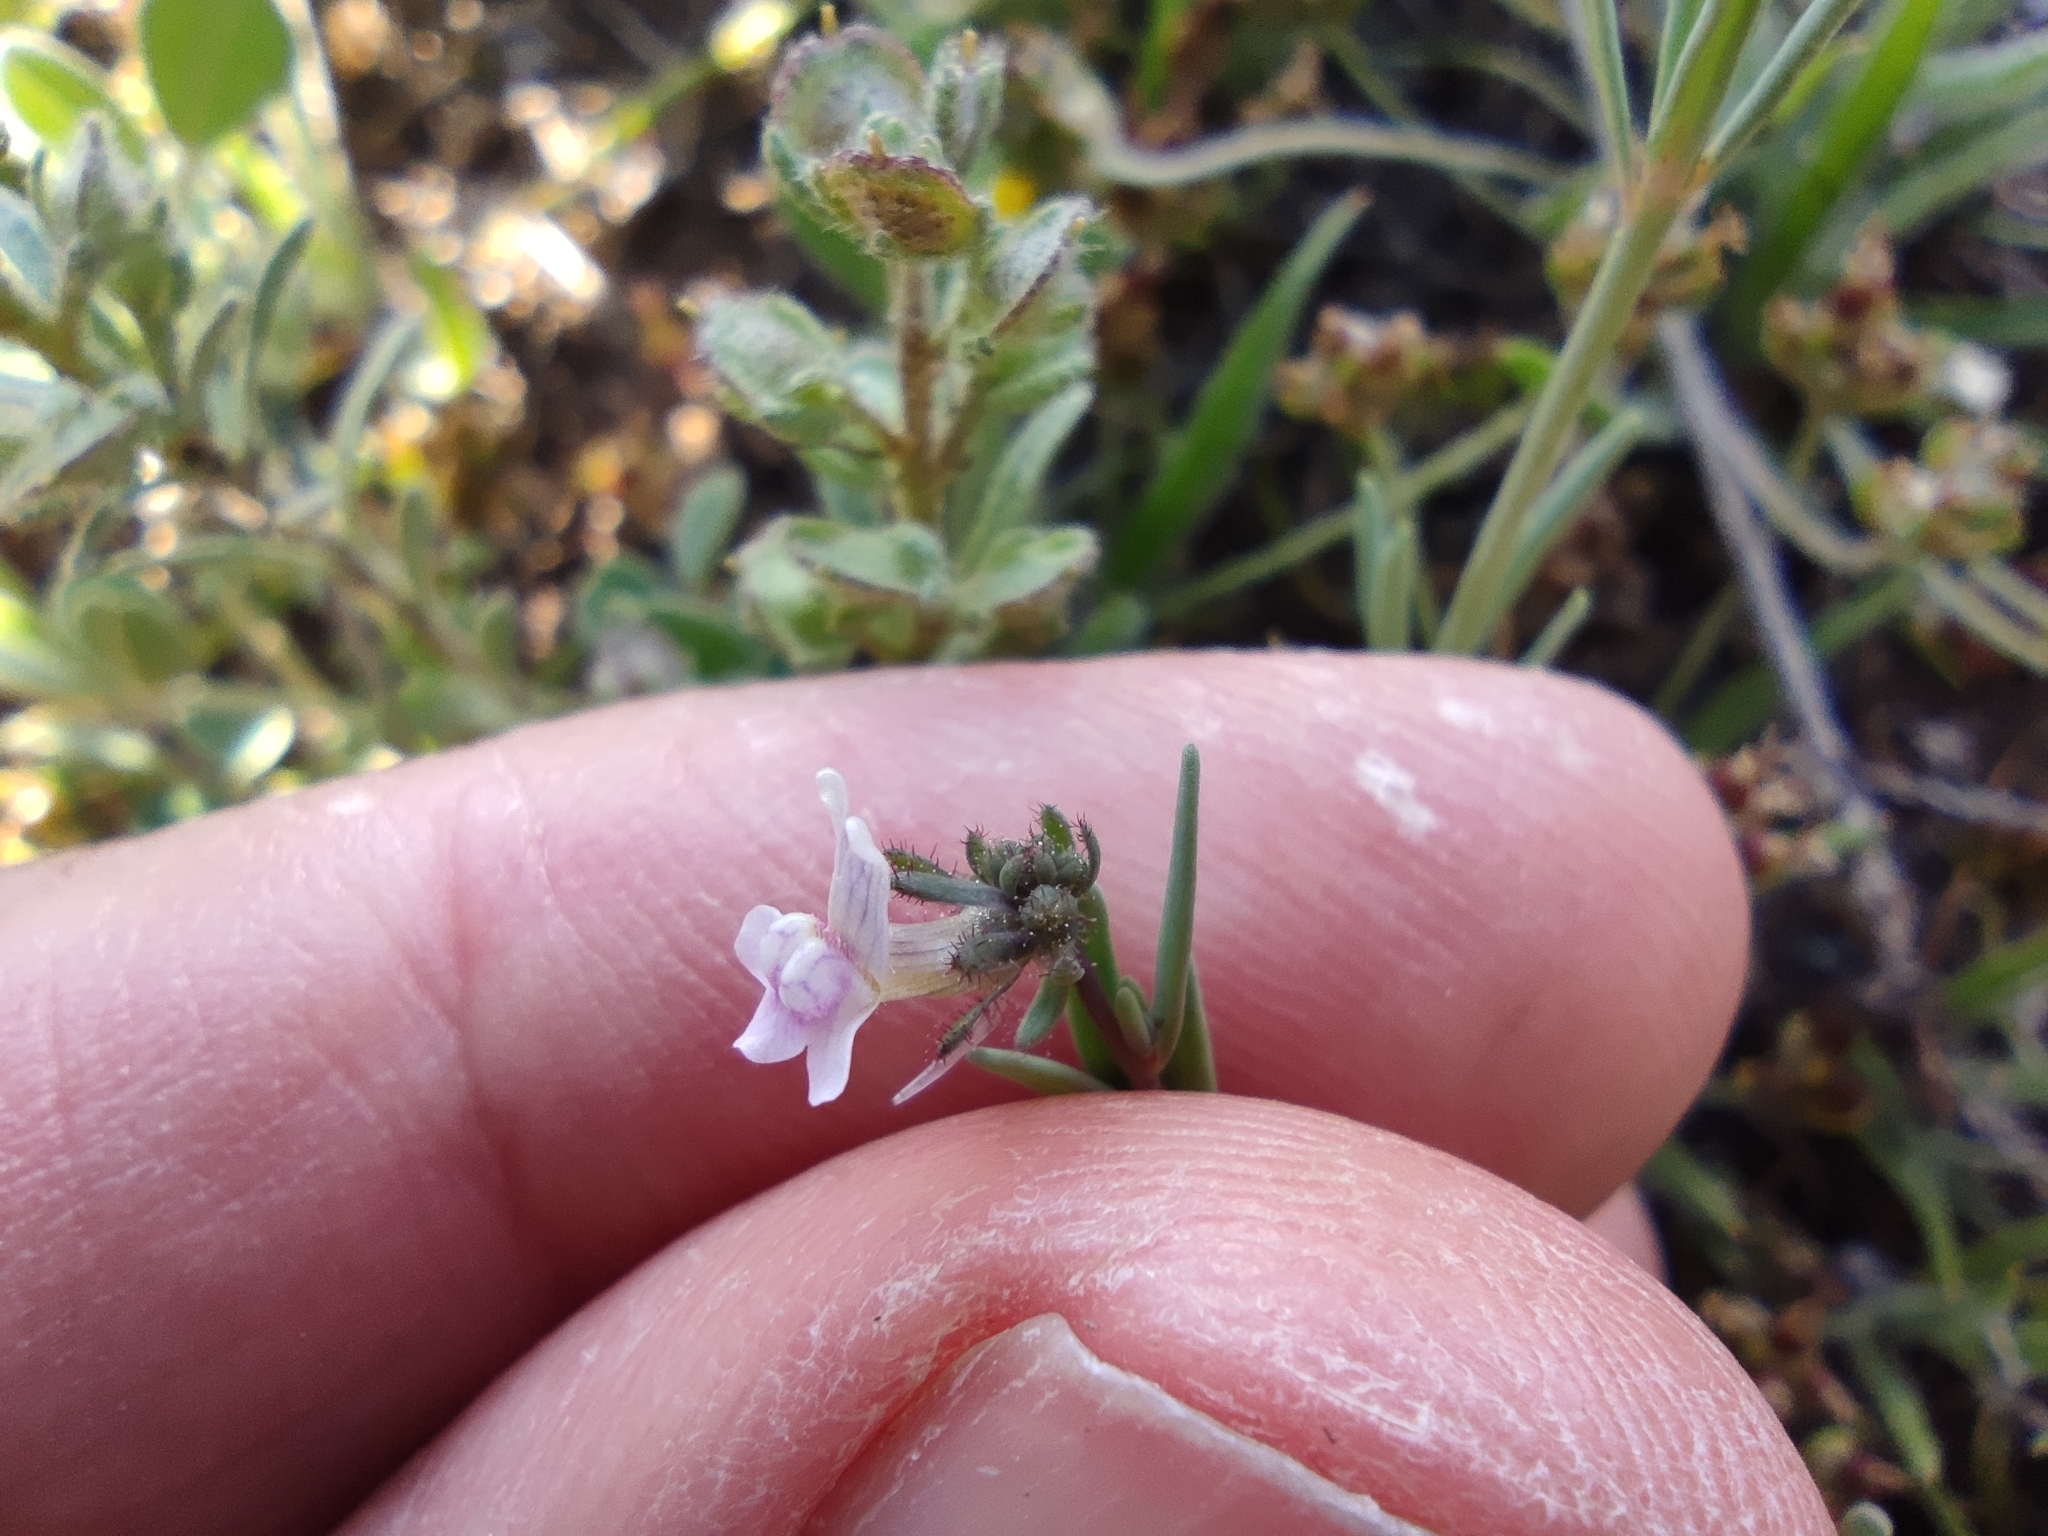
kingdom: Plantae
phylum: Tracheophyta
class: Magnoliopsida
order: Lamiales
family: Plantaginaceae
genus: Linaria
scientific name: Linaria arvensis
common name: Corn toadflax
